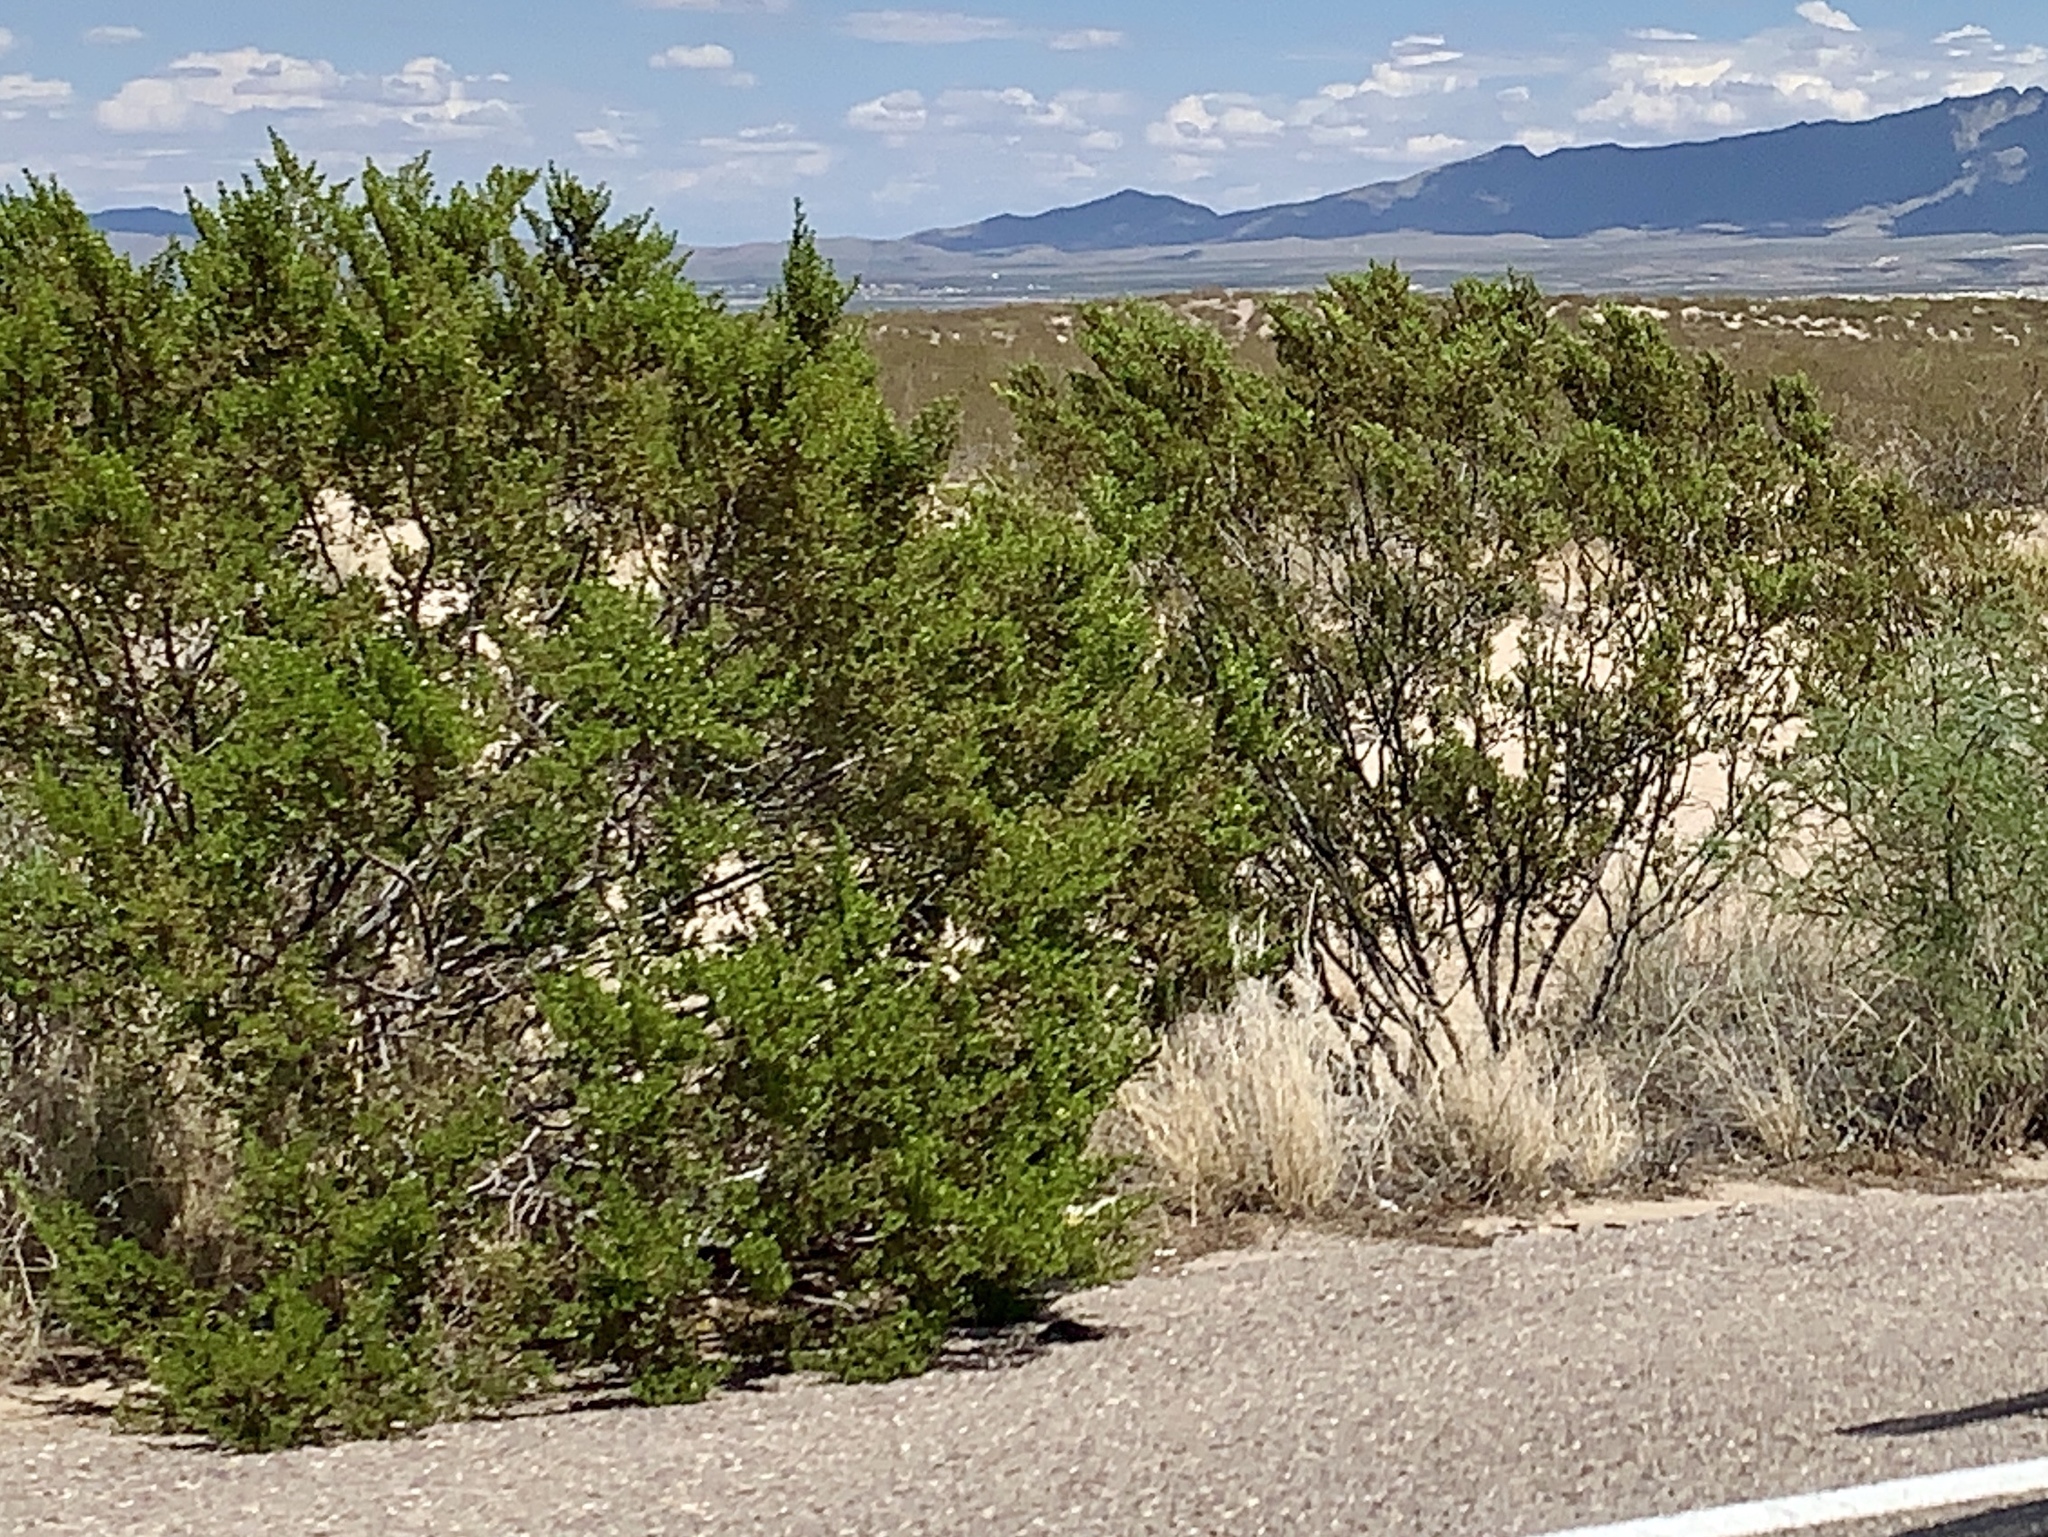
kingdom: Plantae
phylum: Tracheophyta
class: Magnoliopsida
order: Zygophyllales
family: Zygophyllaceae
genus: Larrea
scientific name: Larrea tridentata
